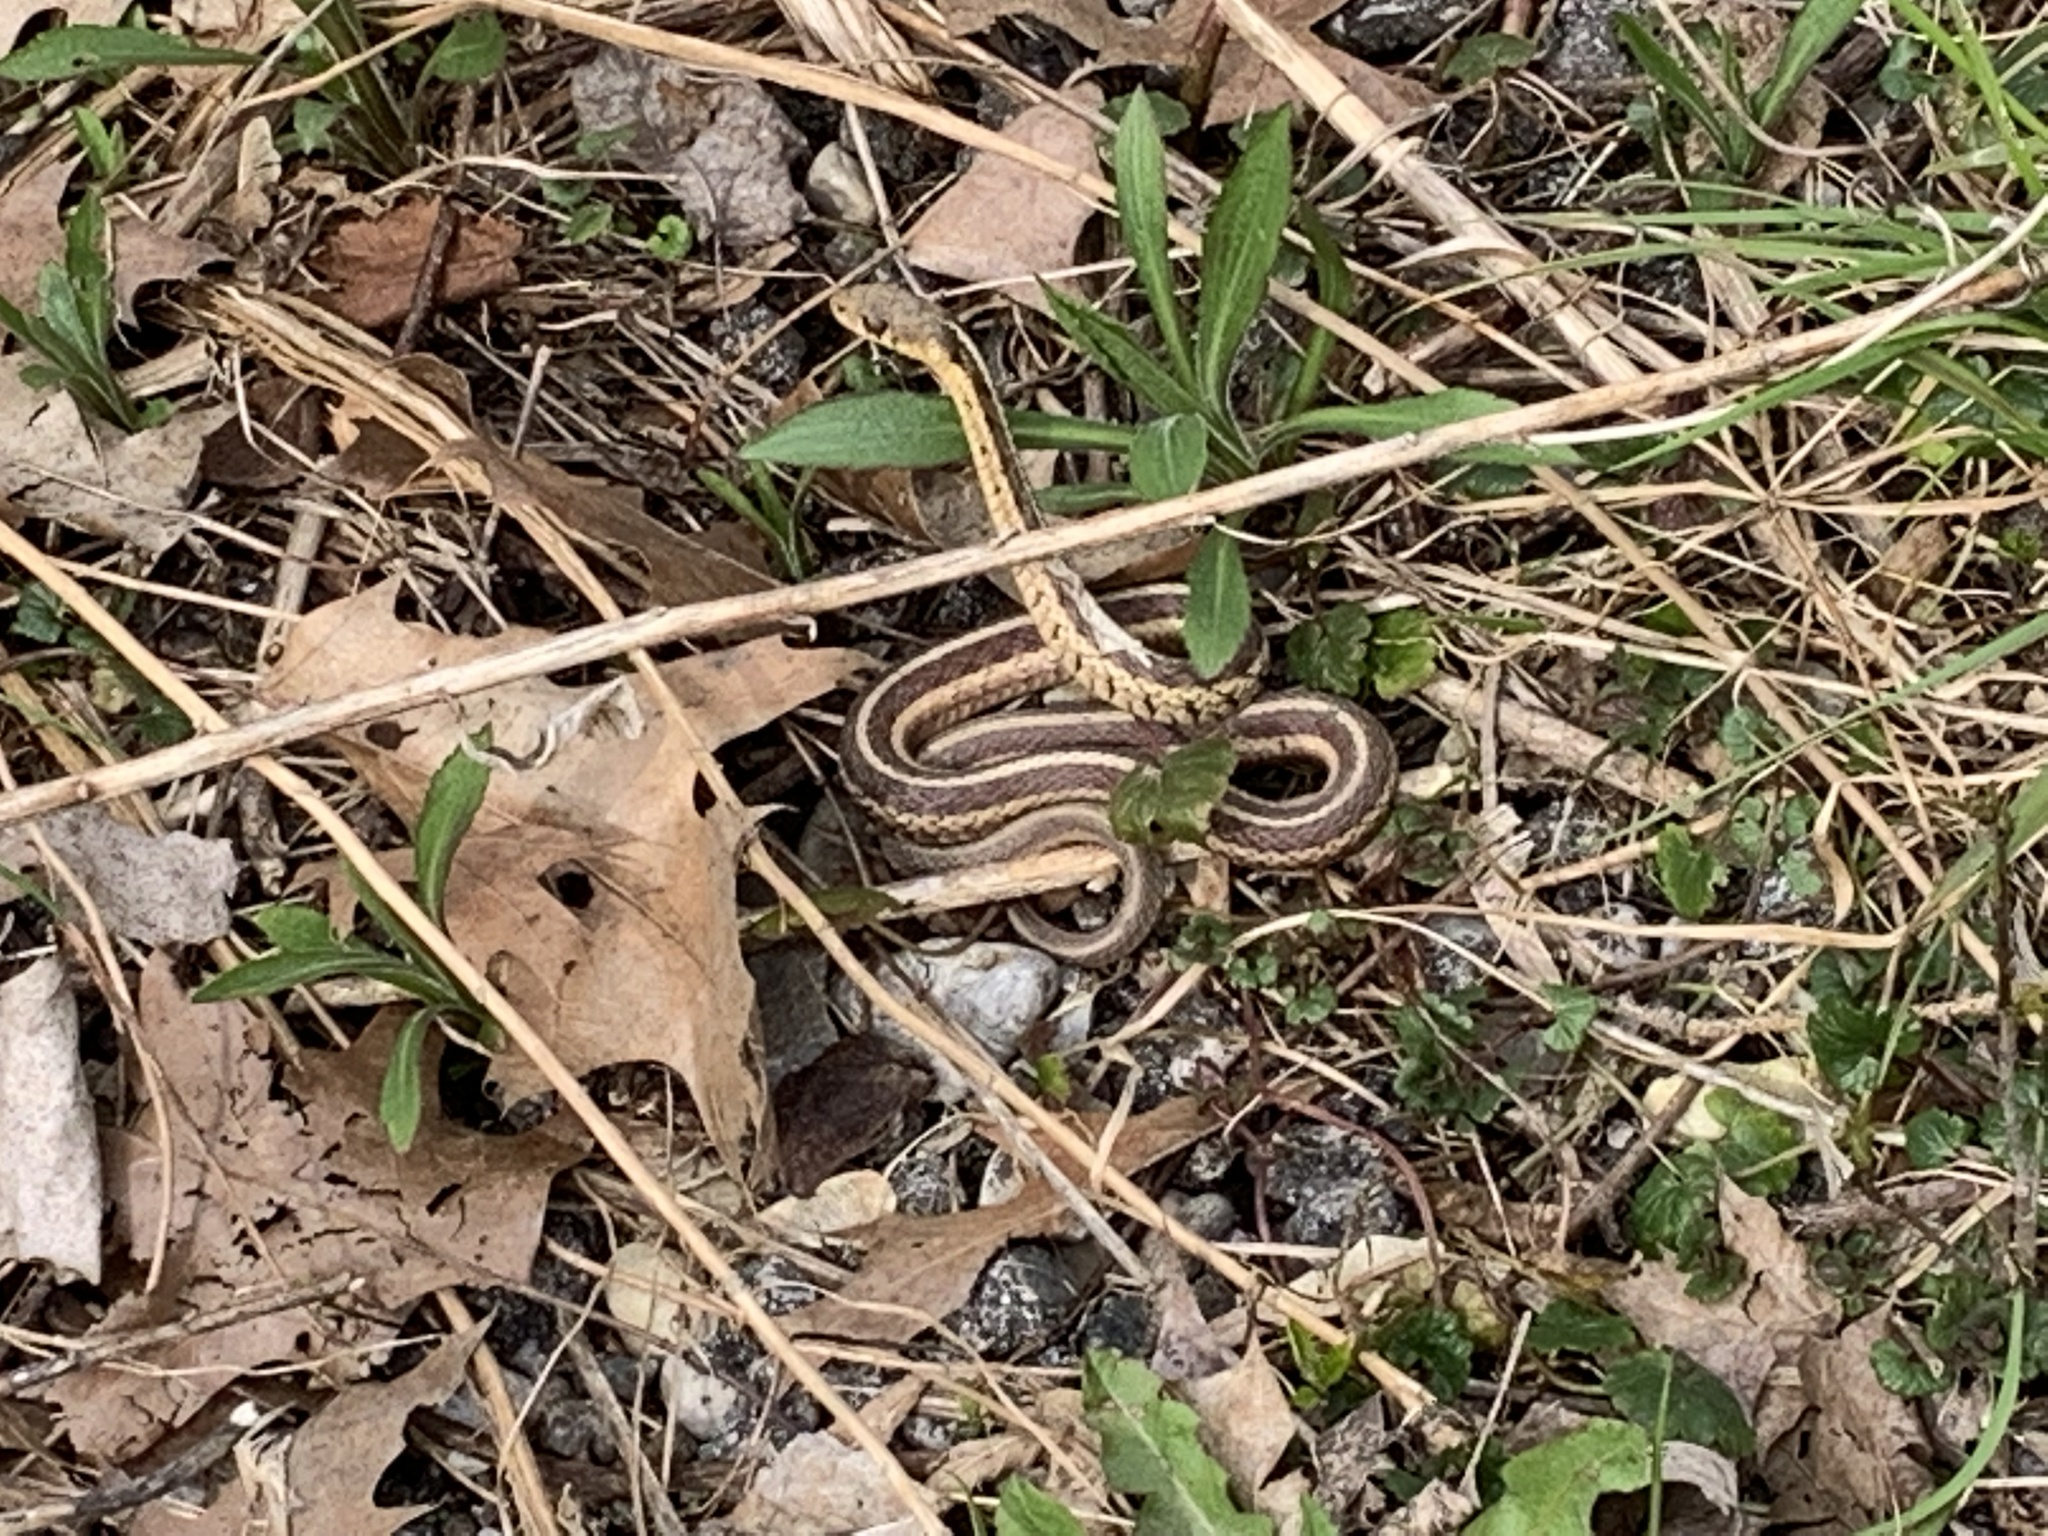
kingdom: Animalia
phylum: Chordata
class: Squamata
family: Colubridae
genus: Thamnophis
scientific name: Thamnophis sirtalis
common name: Common garter snake
